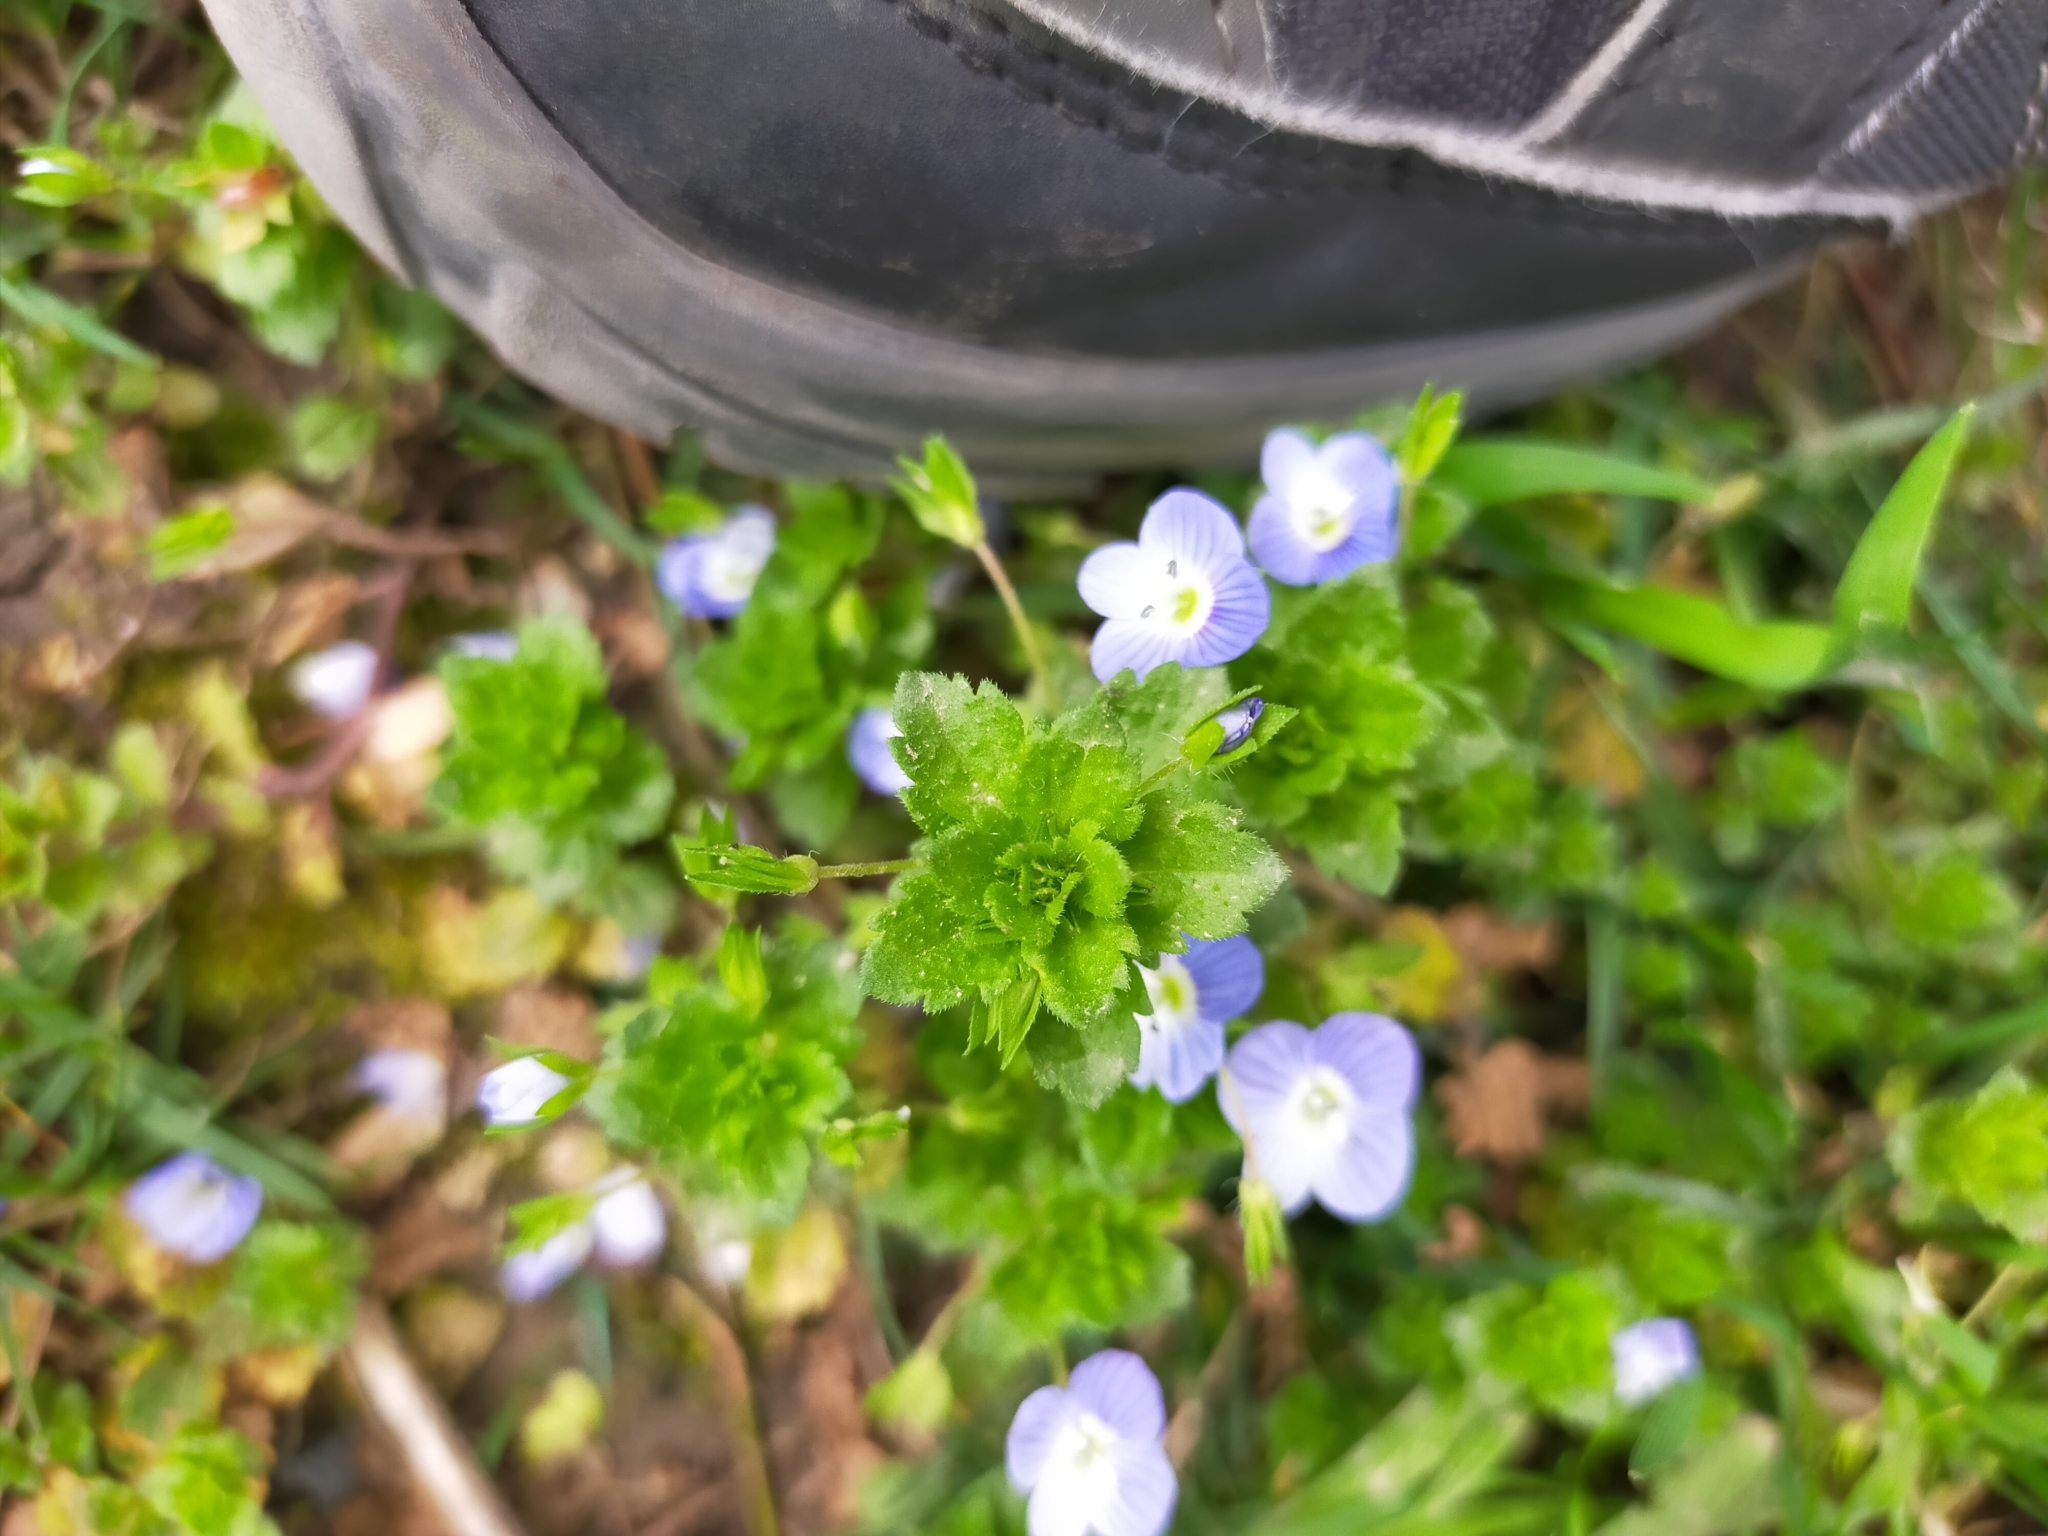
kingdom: Plantae
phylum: Tracheophyta
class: Magnoliopsida
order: Lamiales
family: Plantaginaceae
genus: Veronica
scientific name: Veronica persica
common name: Common field-speedwell
